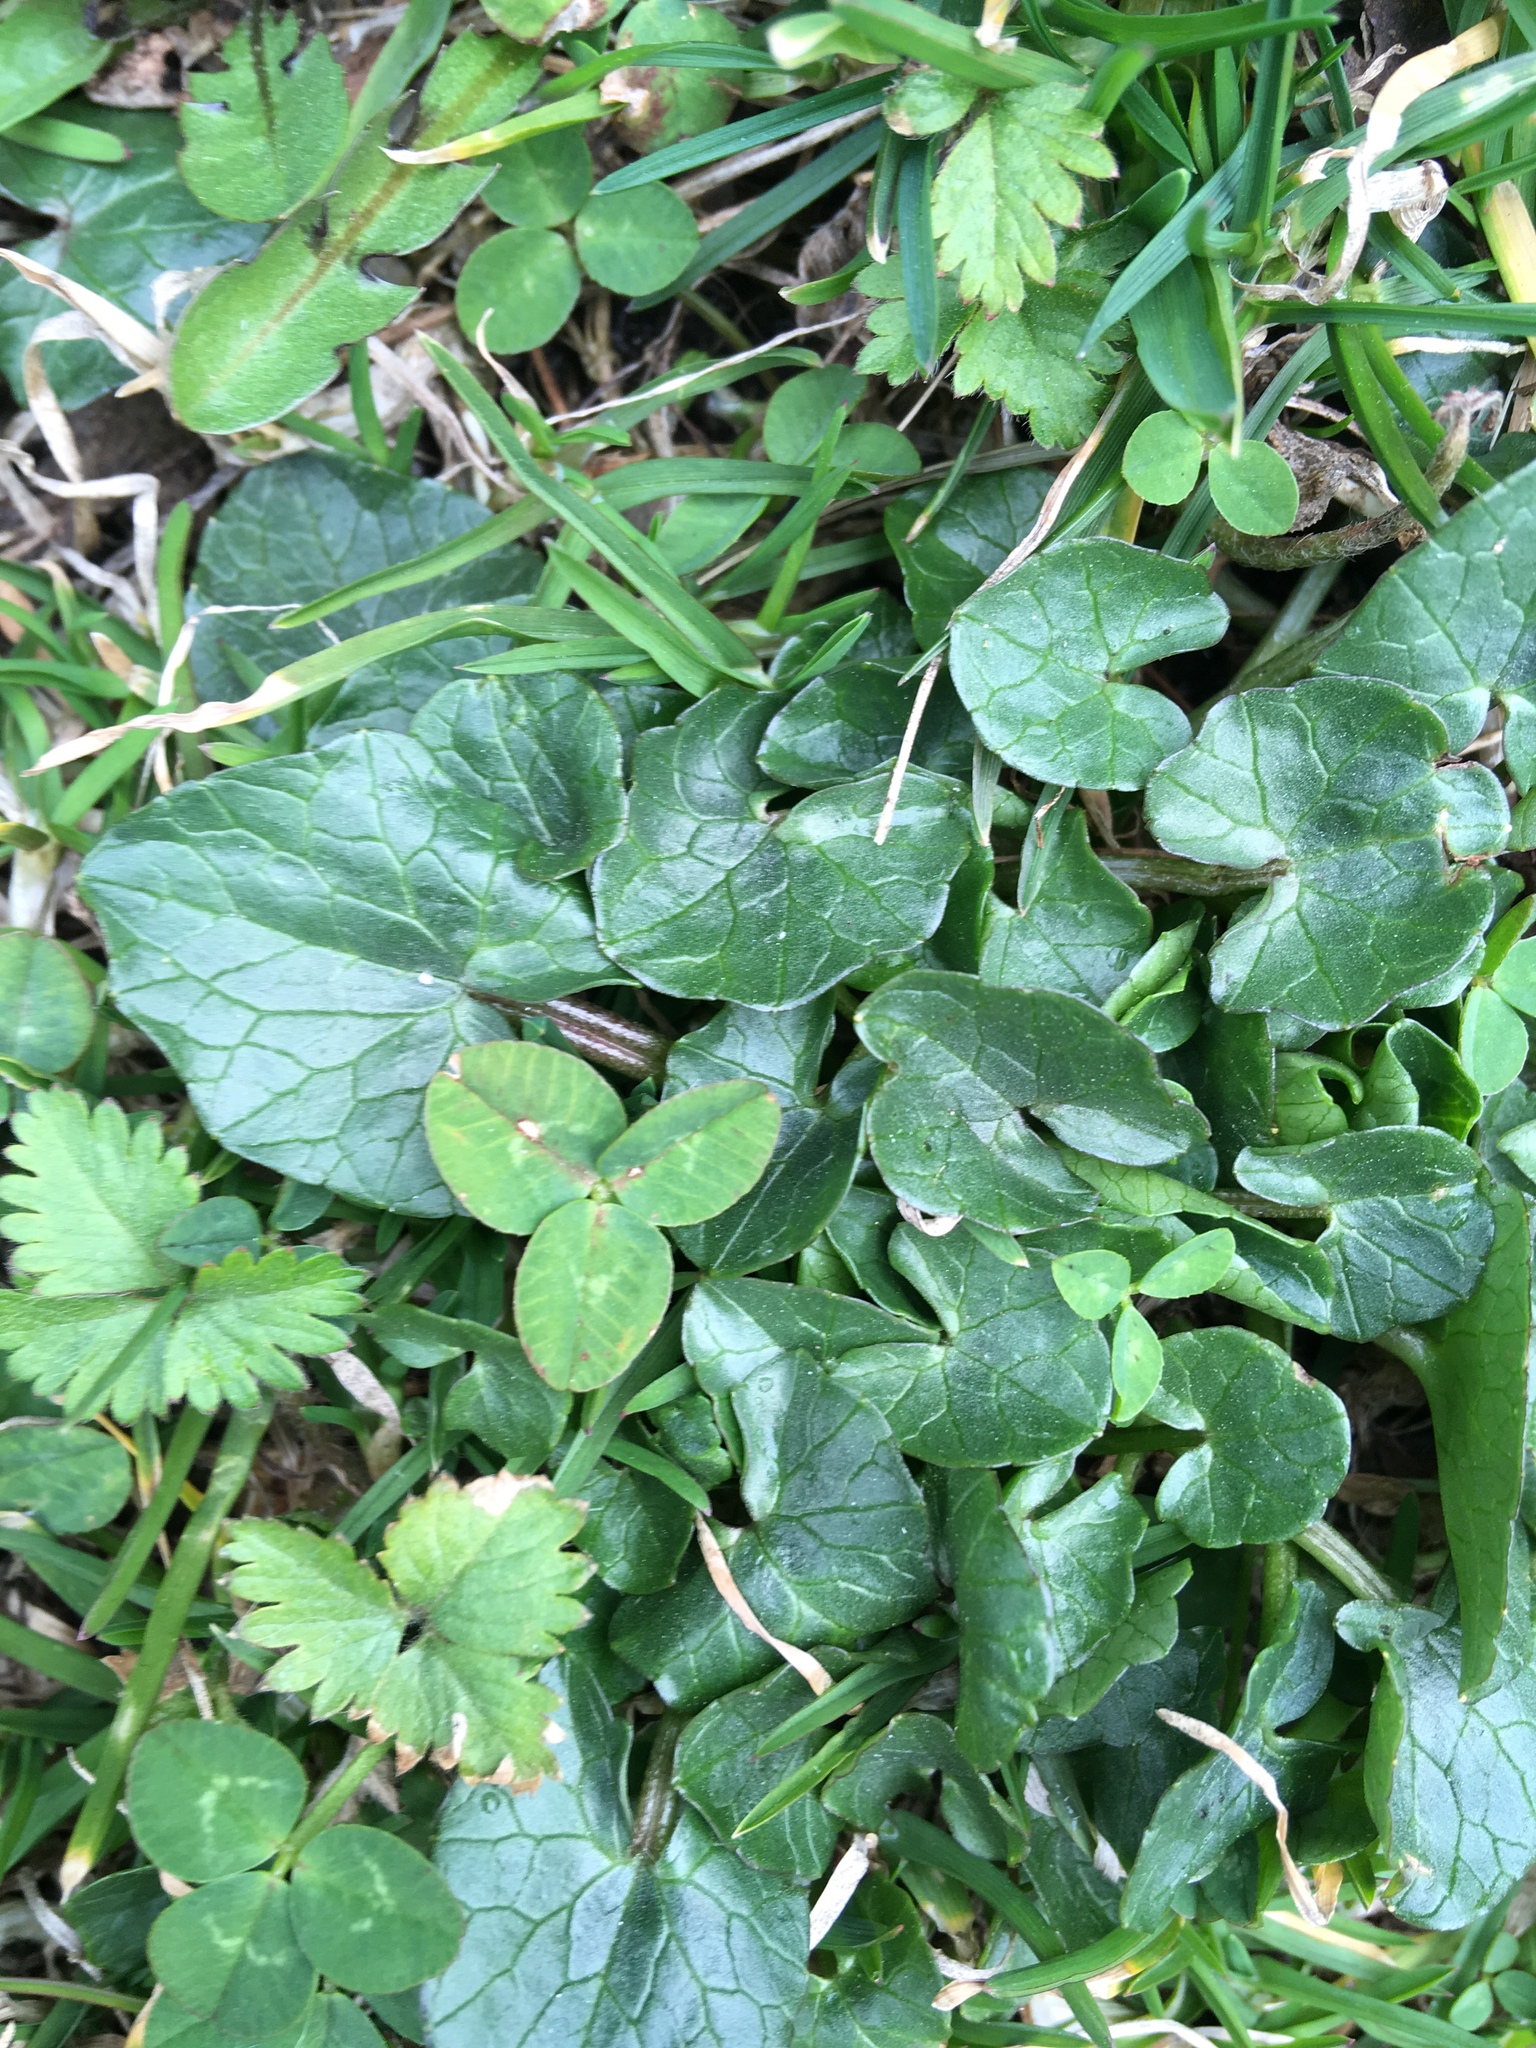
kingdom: Plantae
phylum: Tracheophyta
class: Magnoliopsida
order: Ranunculales
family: Ranunculaceae
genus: Ficaria
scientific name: Ficaria verna
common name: Lesser celandine
